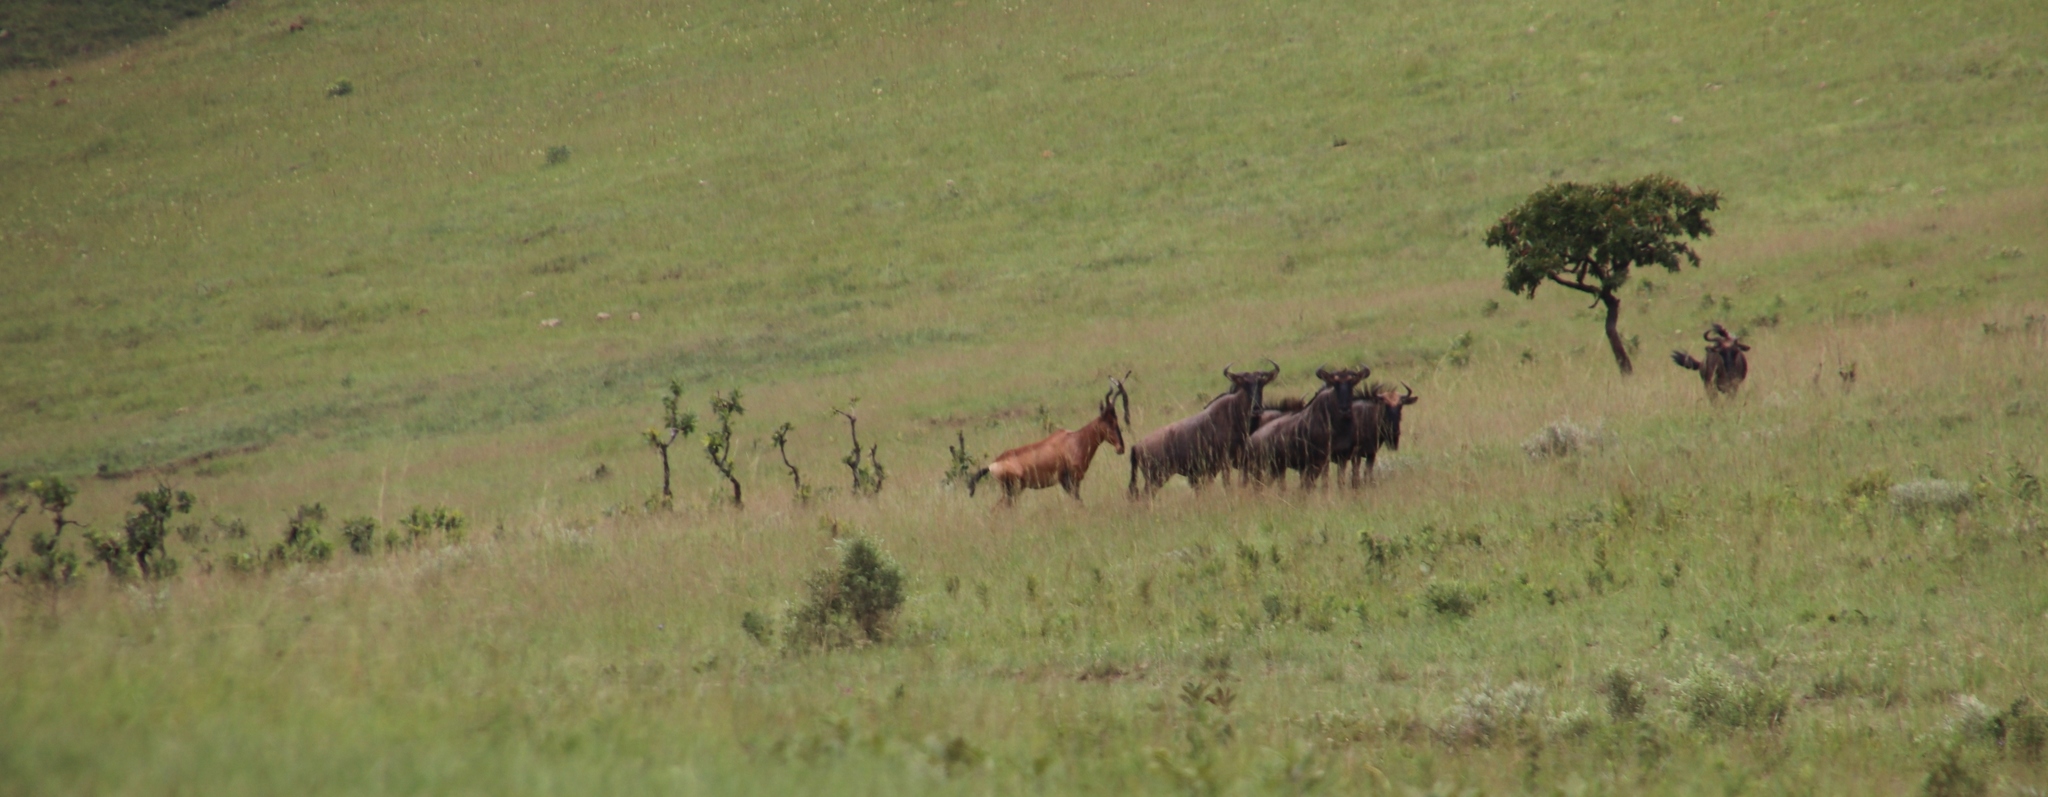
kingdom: Animalia
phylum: Chordata
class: Mammalia
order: Artiodactyla
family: Bovidae
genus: Connochaetes
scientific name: Connochaetes taurinus
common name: Blue wildebeest
